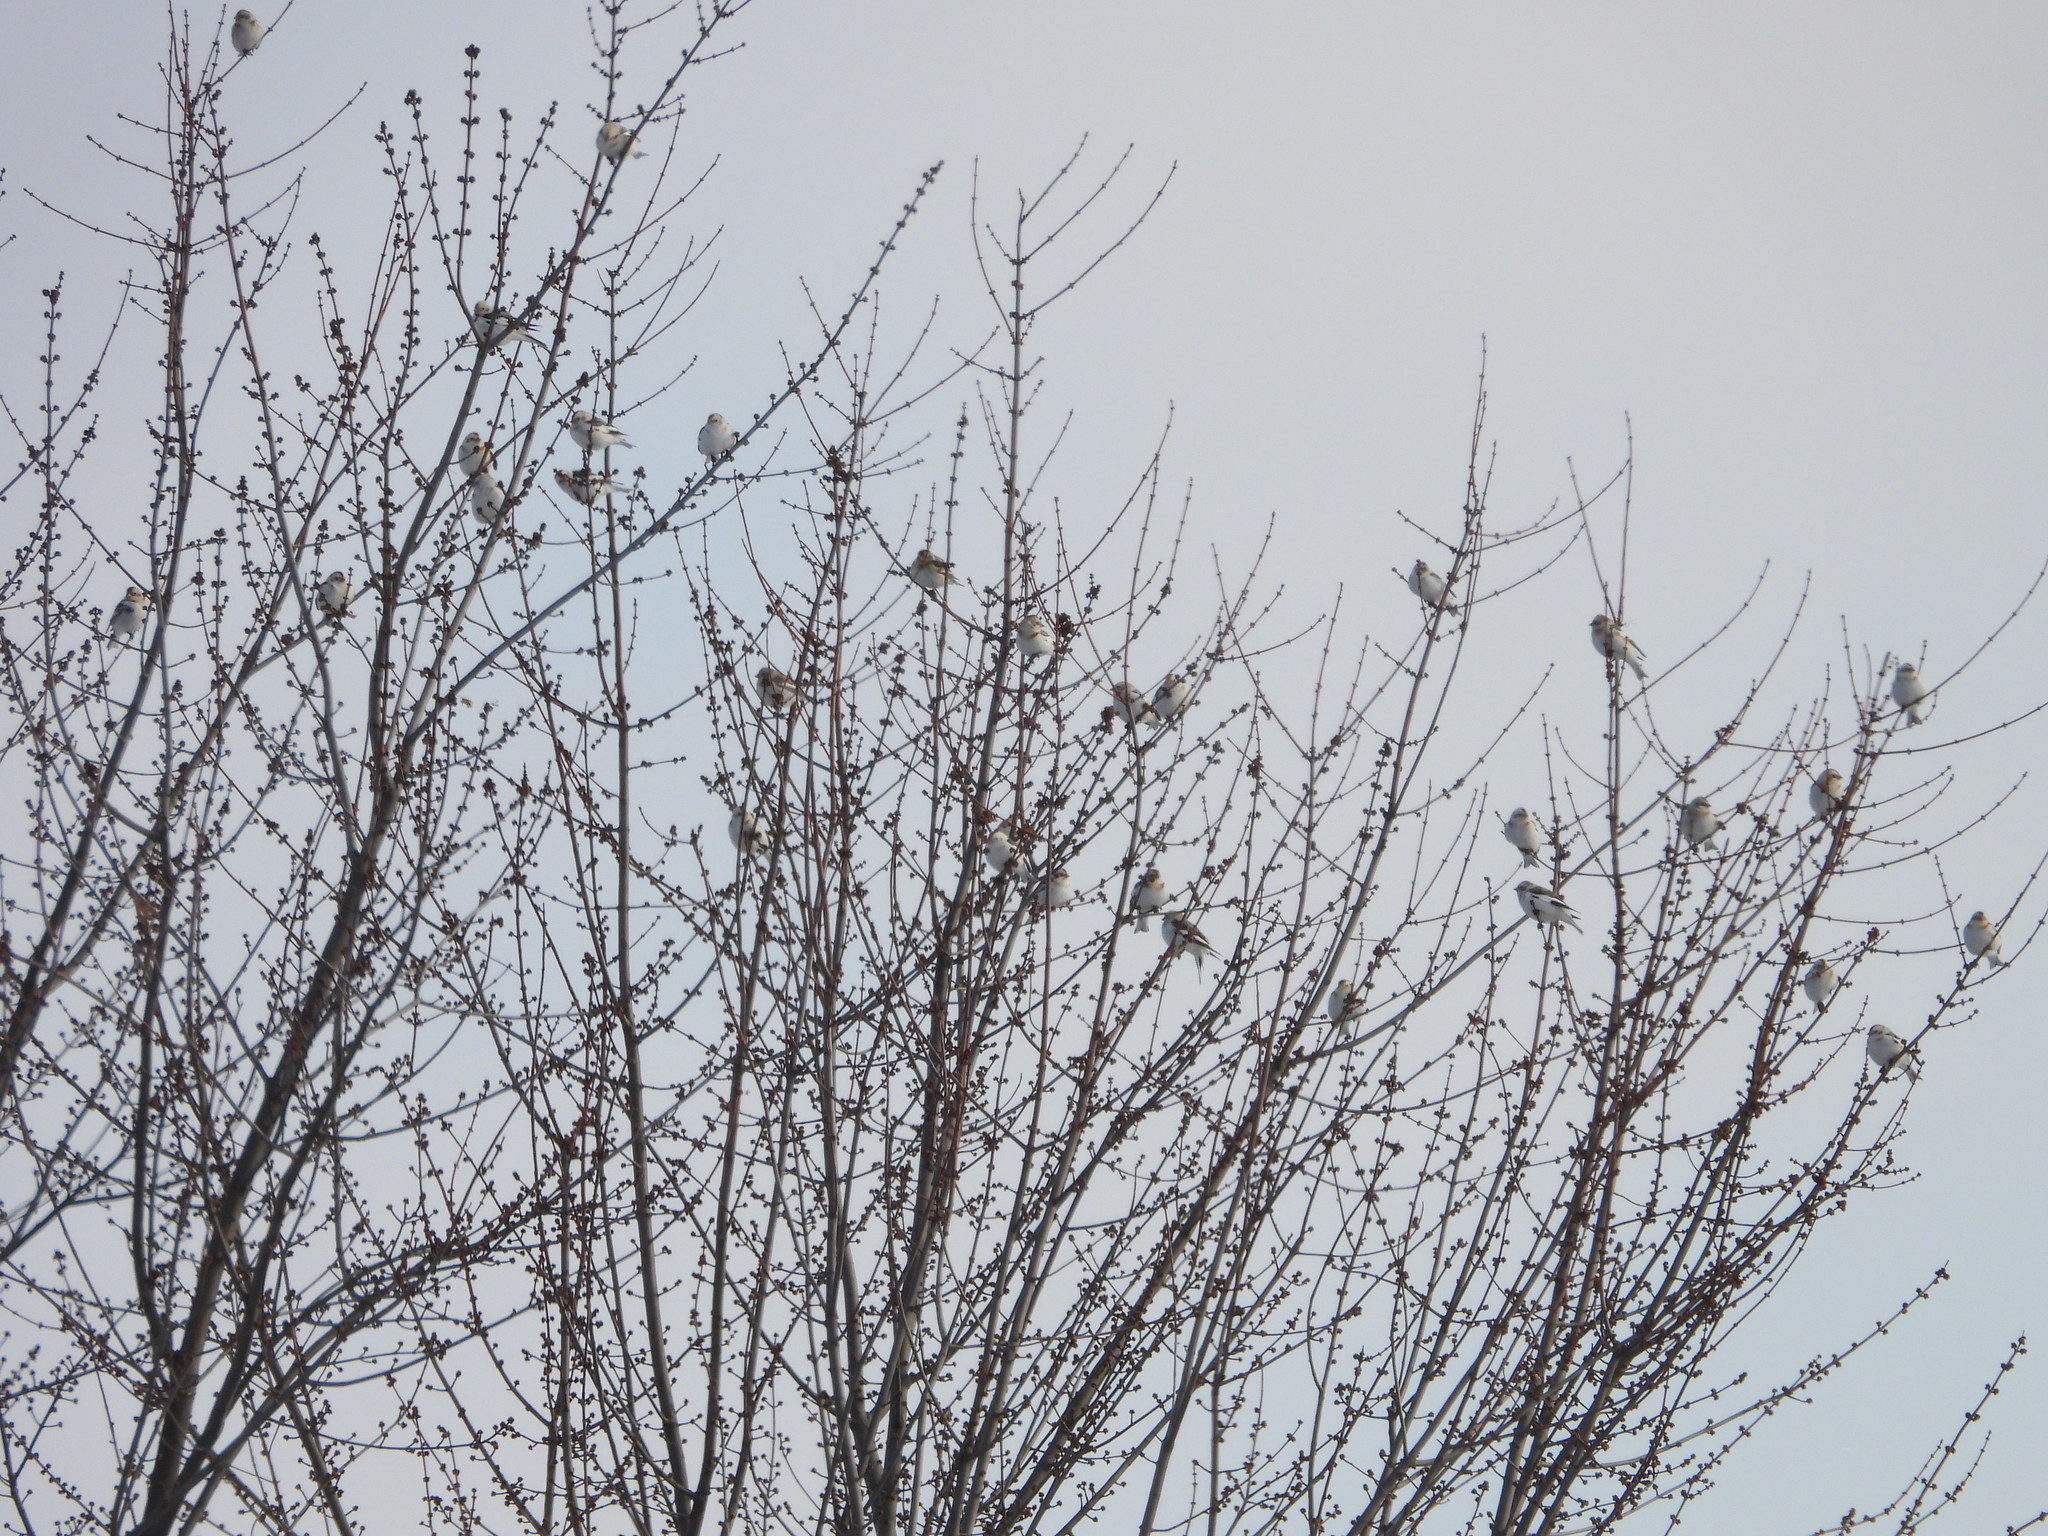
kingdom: Animalia
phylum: Chordata
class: Aves
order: Passeriformes
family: Calcariidae
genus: Plectrophenax
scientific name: Plectrophenax nivalis
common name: Snow bunting
